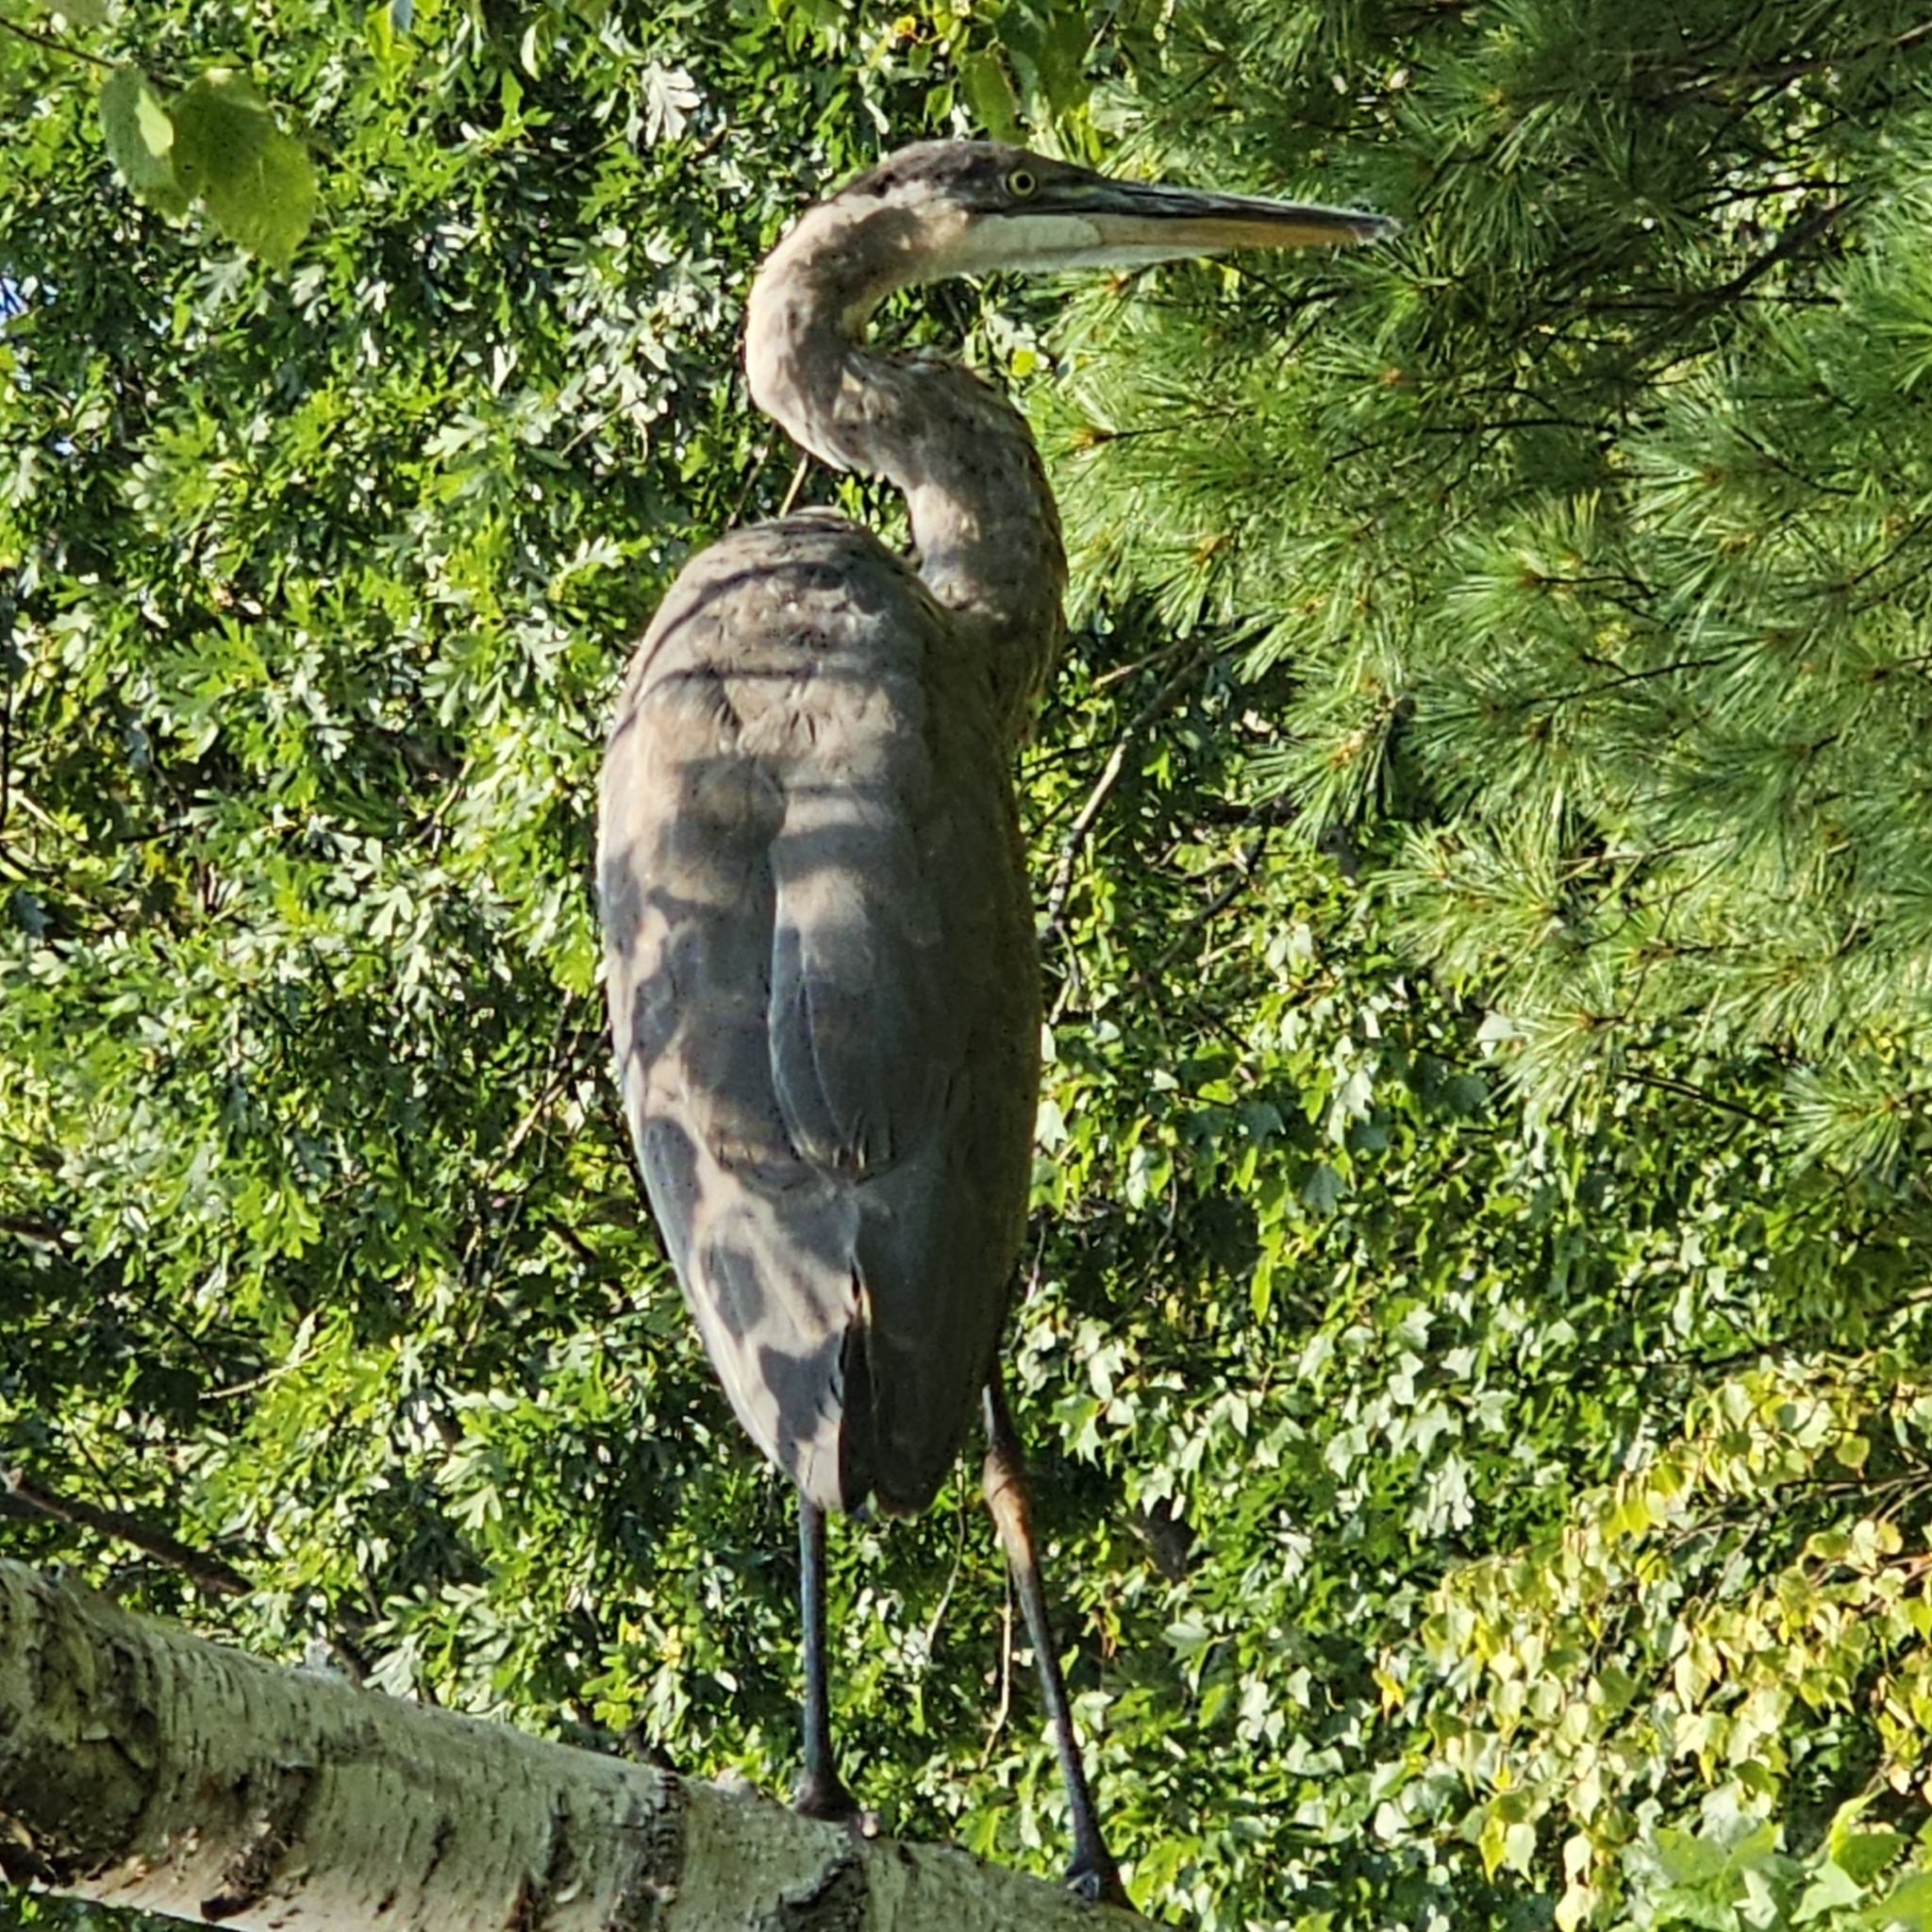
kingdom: Animalia
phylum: Chordata
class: Aves
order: Pelecaniformes
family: Ardeidae
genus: Ardea
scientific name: Ardea herodias
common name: Great blue heron
